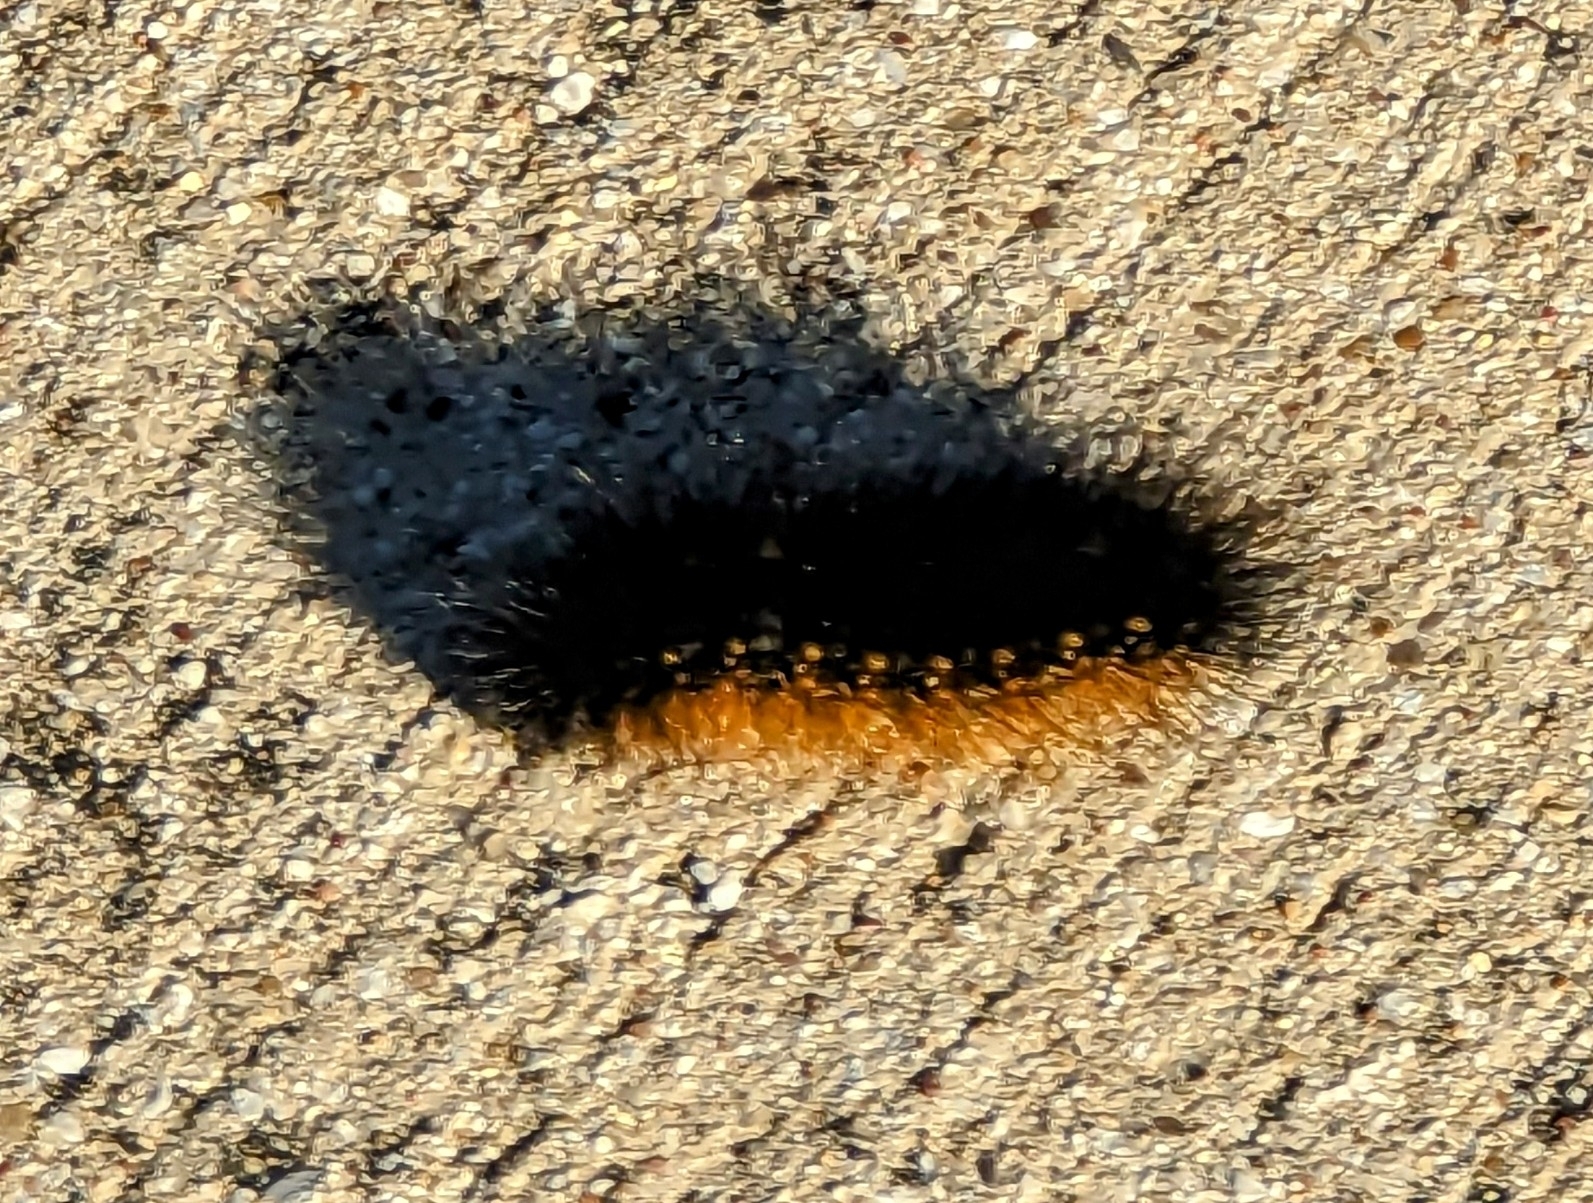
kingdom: Animalia
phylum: Arthropoda
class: Insecta
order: Lepidoptera
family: Erebidae
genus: Estigmene
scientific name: Estigmene acrea
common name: Salt marsh moth
